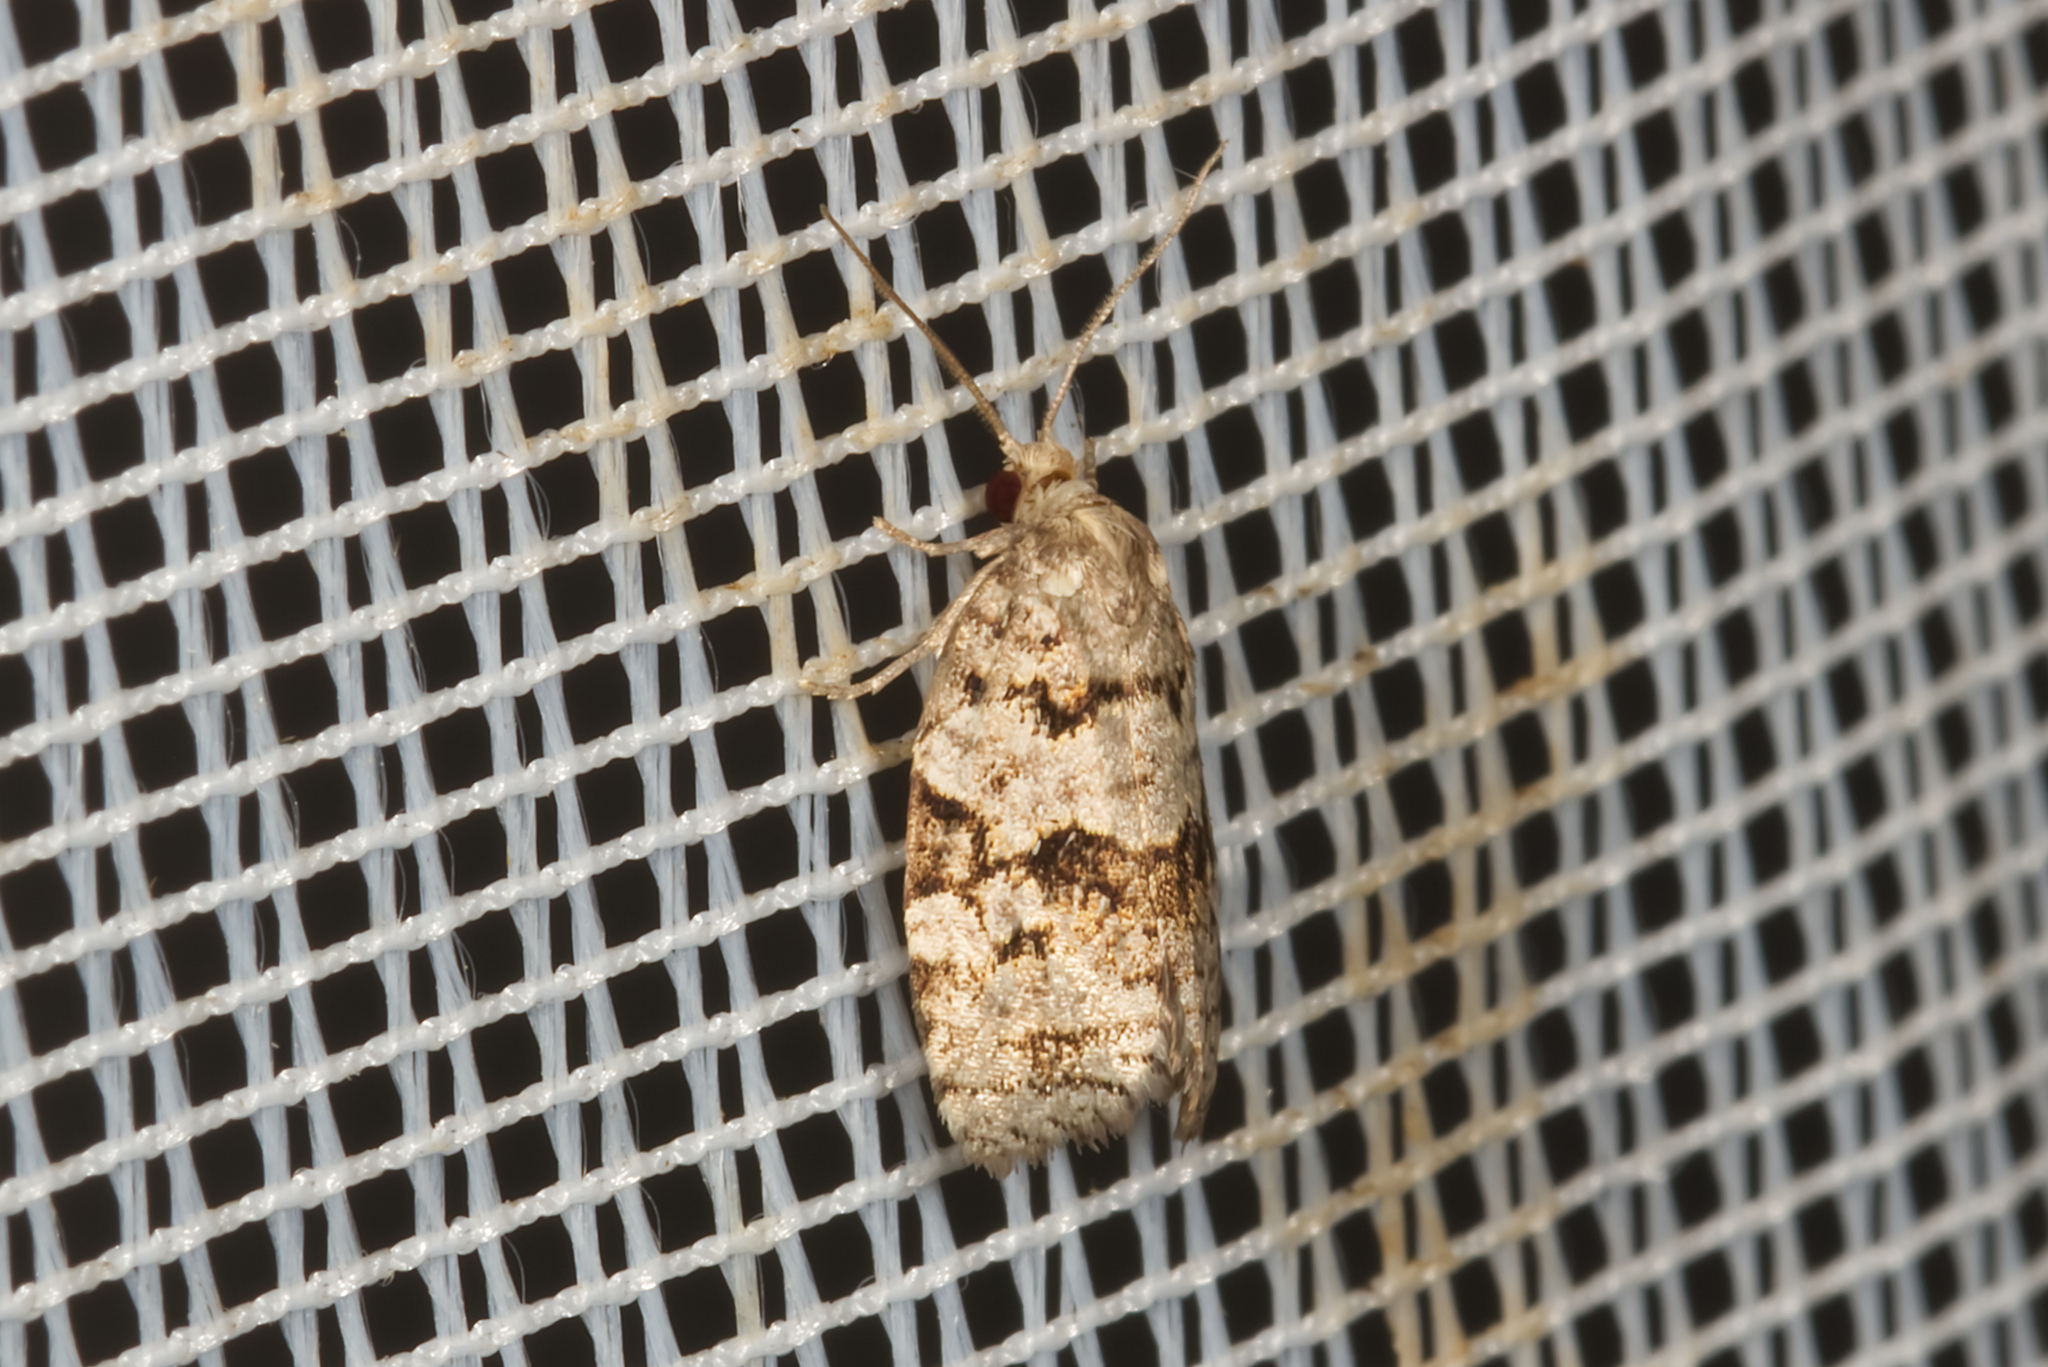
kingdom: Animalia
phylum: Arthropoda
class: Insecta
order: Lepidoptera
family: Tortricidae
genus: Dichelia
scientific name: Dichelia histrionana
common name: Tortricid moth
